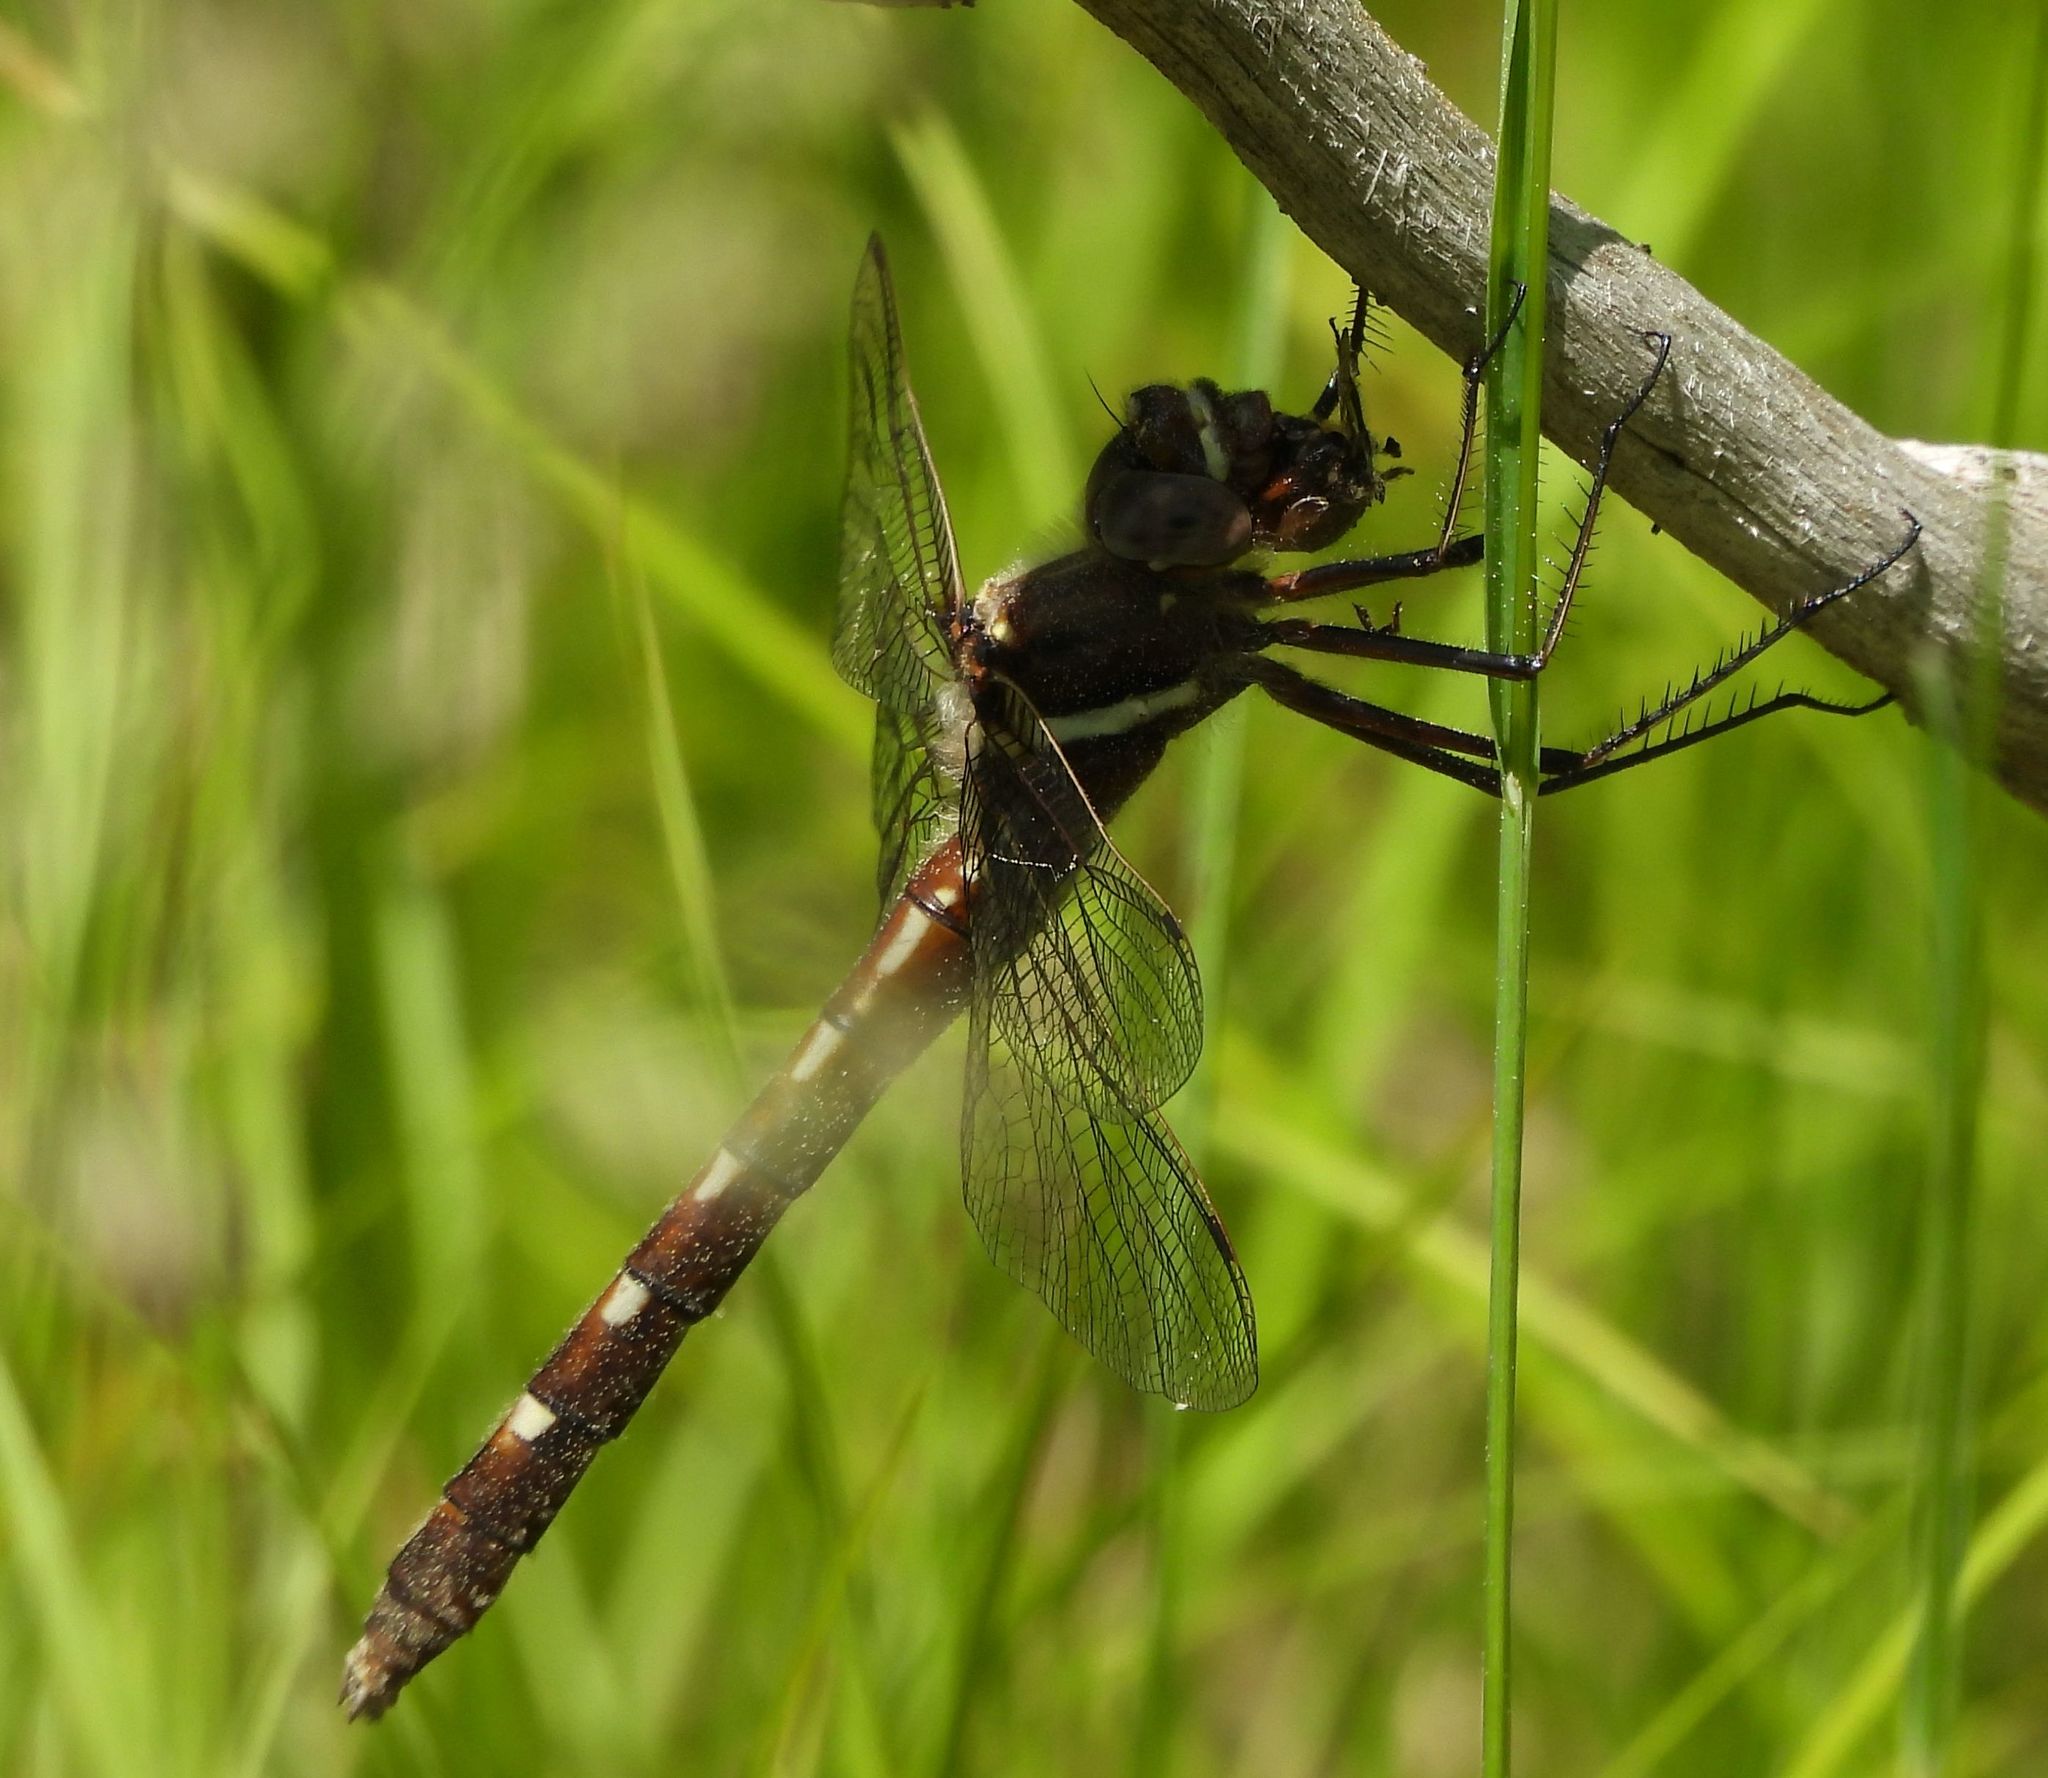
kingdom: Animalia
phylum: Arthropoda
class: Insecta
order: Odonata
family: Macromiidae
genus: Didymops
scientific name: Didymops transversa
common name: Stream cruiser
